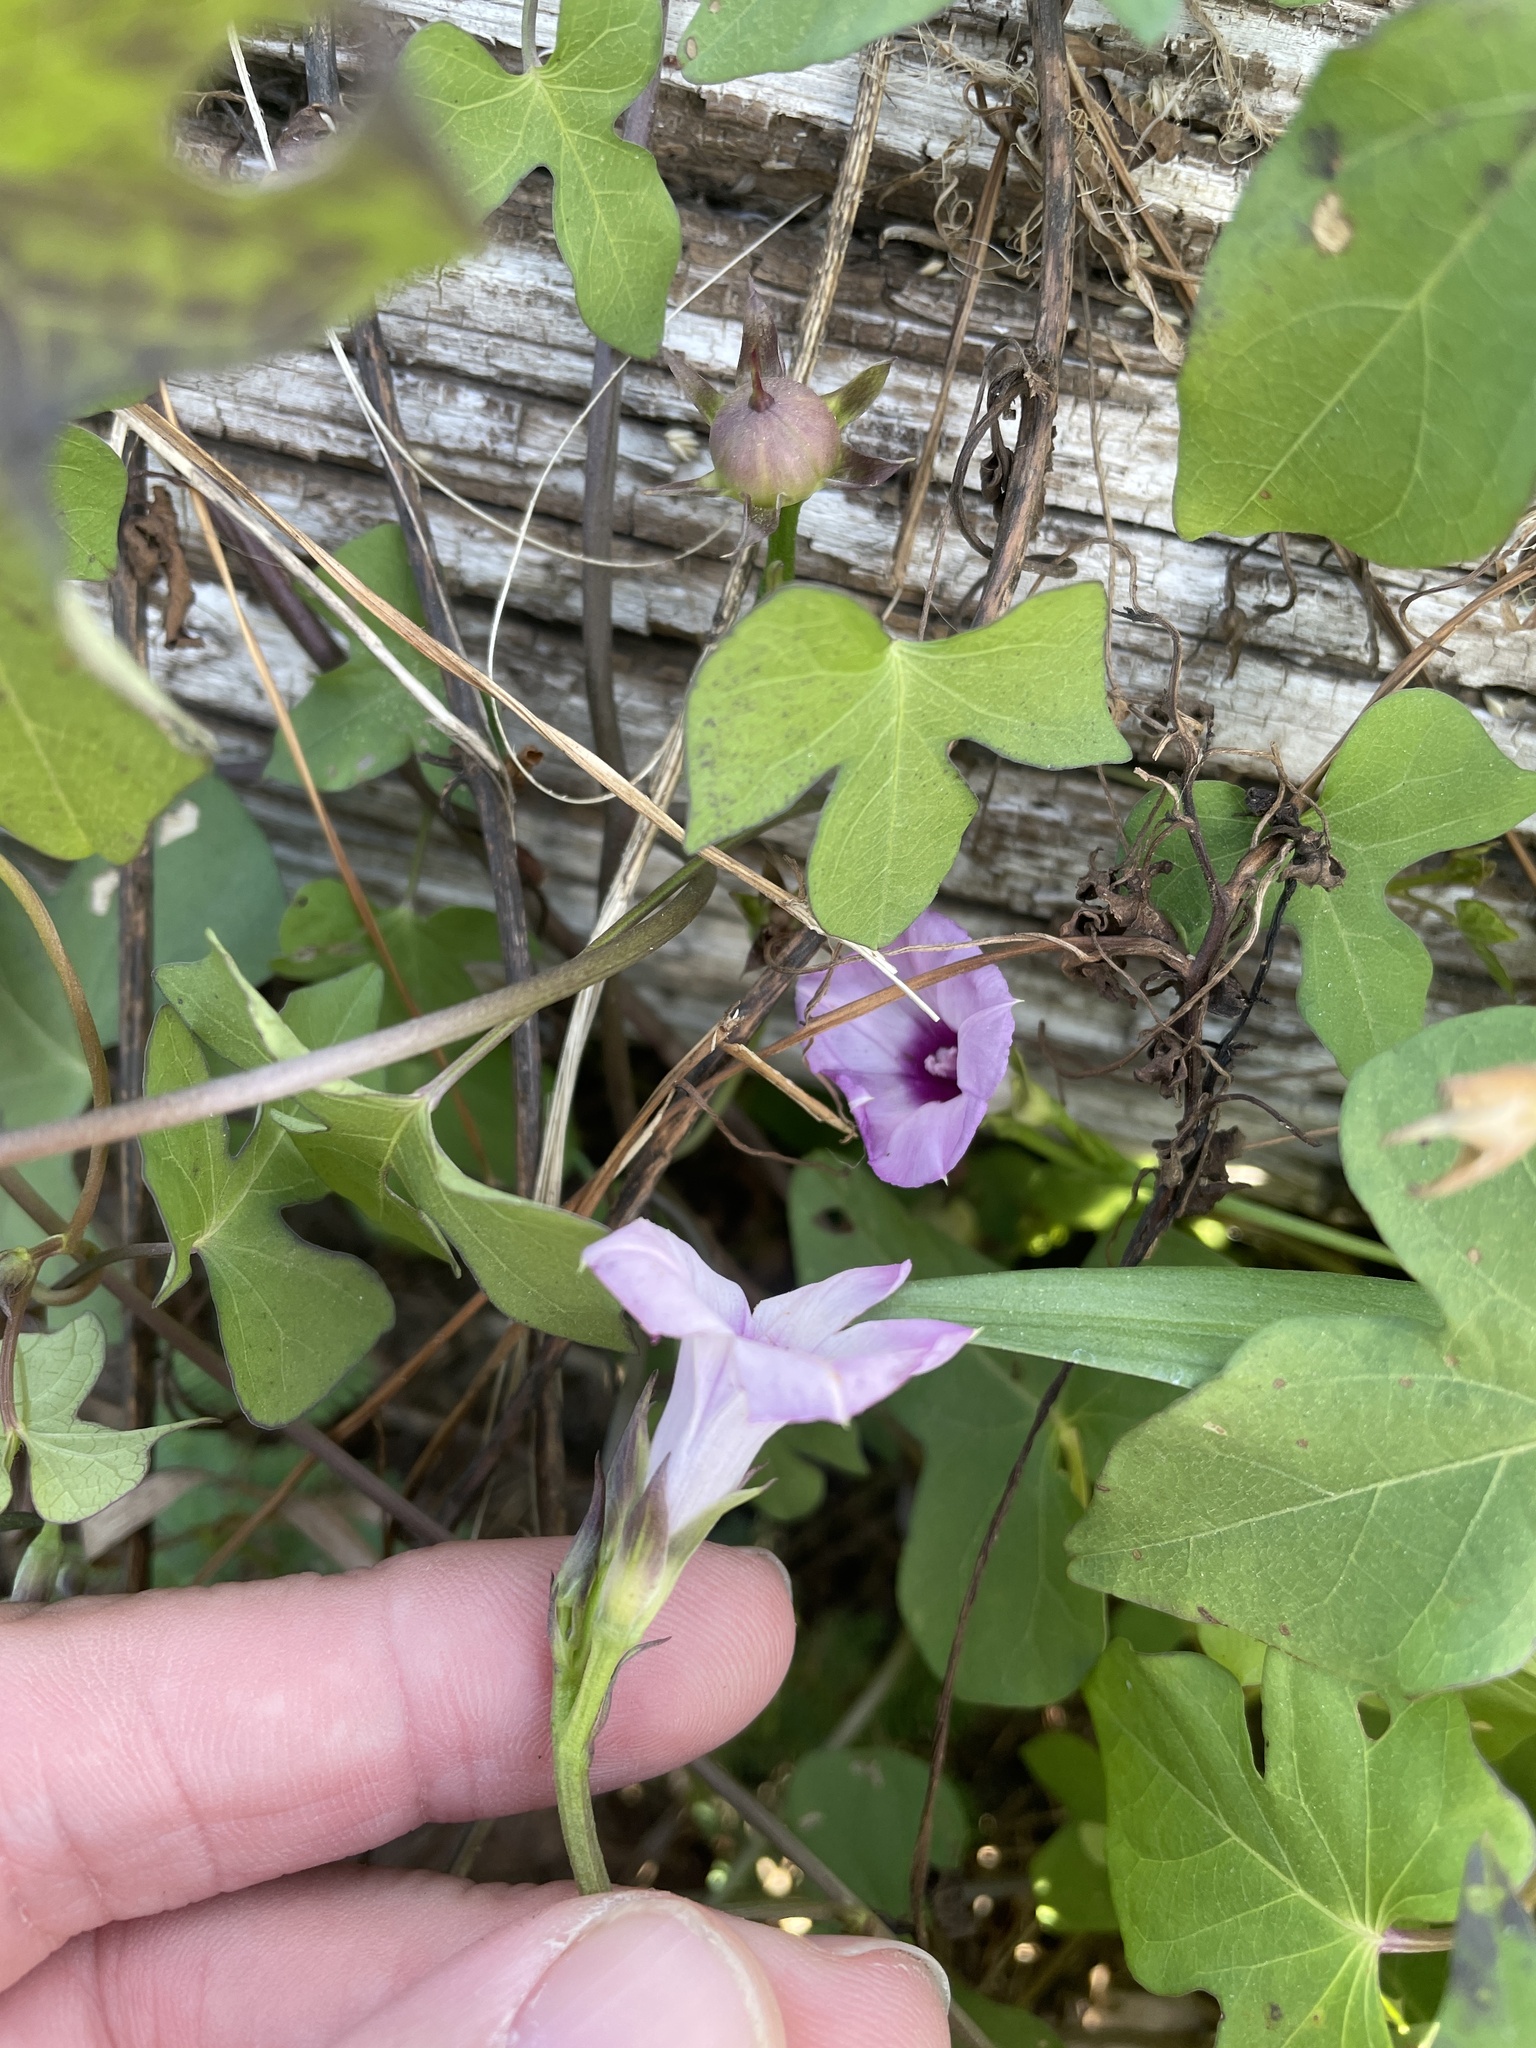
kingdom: Plantae
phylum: Tracheophyta
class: Magnoliopsida
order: Solanales
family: Convolvulaceae
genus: Ipomoea
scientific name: Ipomoea cordatotriloba
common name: Cotton morning glory
